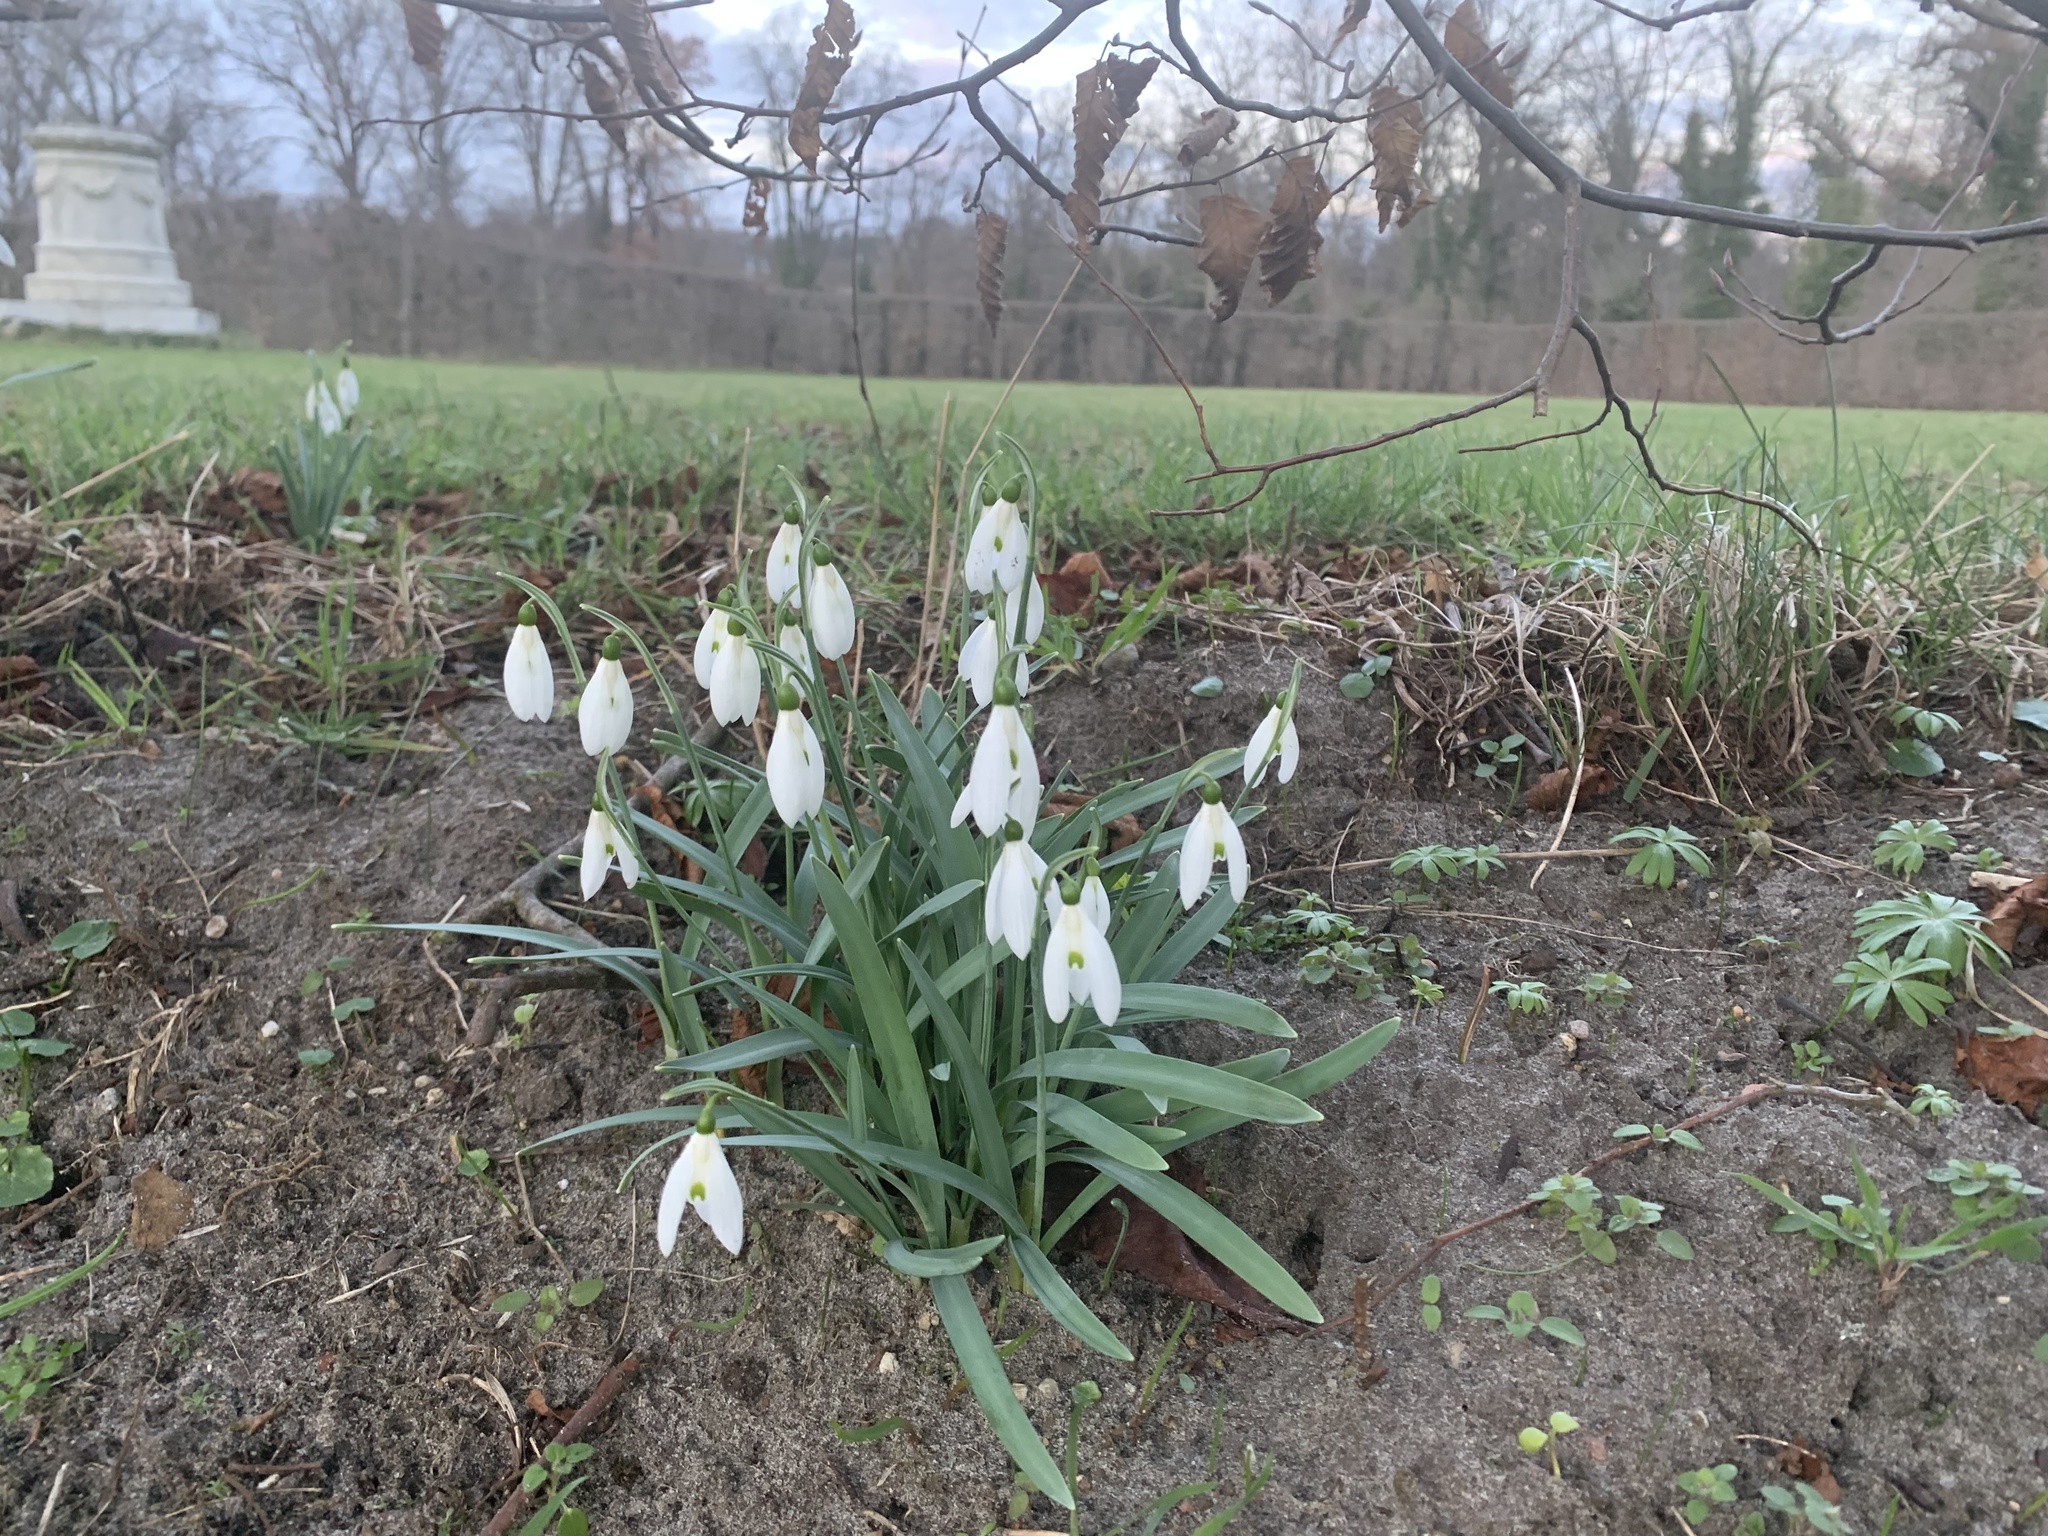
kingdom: Plantae
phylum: Tracheophyta
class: Liliopsida
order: Asparagales
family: Amaryllidaceae
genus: Galanthus
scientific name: Galanthus nivalis
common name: Snowdrop
